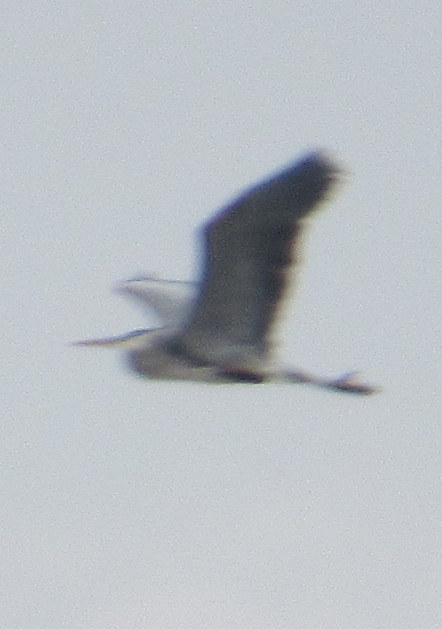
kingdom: Animalia
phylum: Chordata
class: Aves
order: Pelecaniformes
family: Ardeidae
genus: Ardea
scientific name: Ardea herodias
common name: Great blue heron
